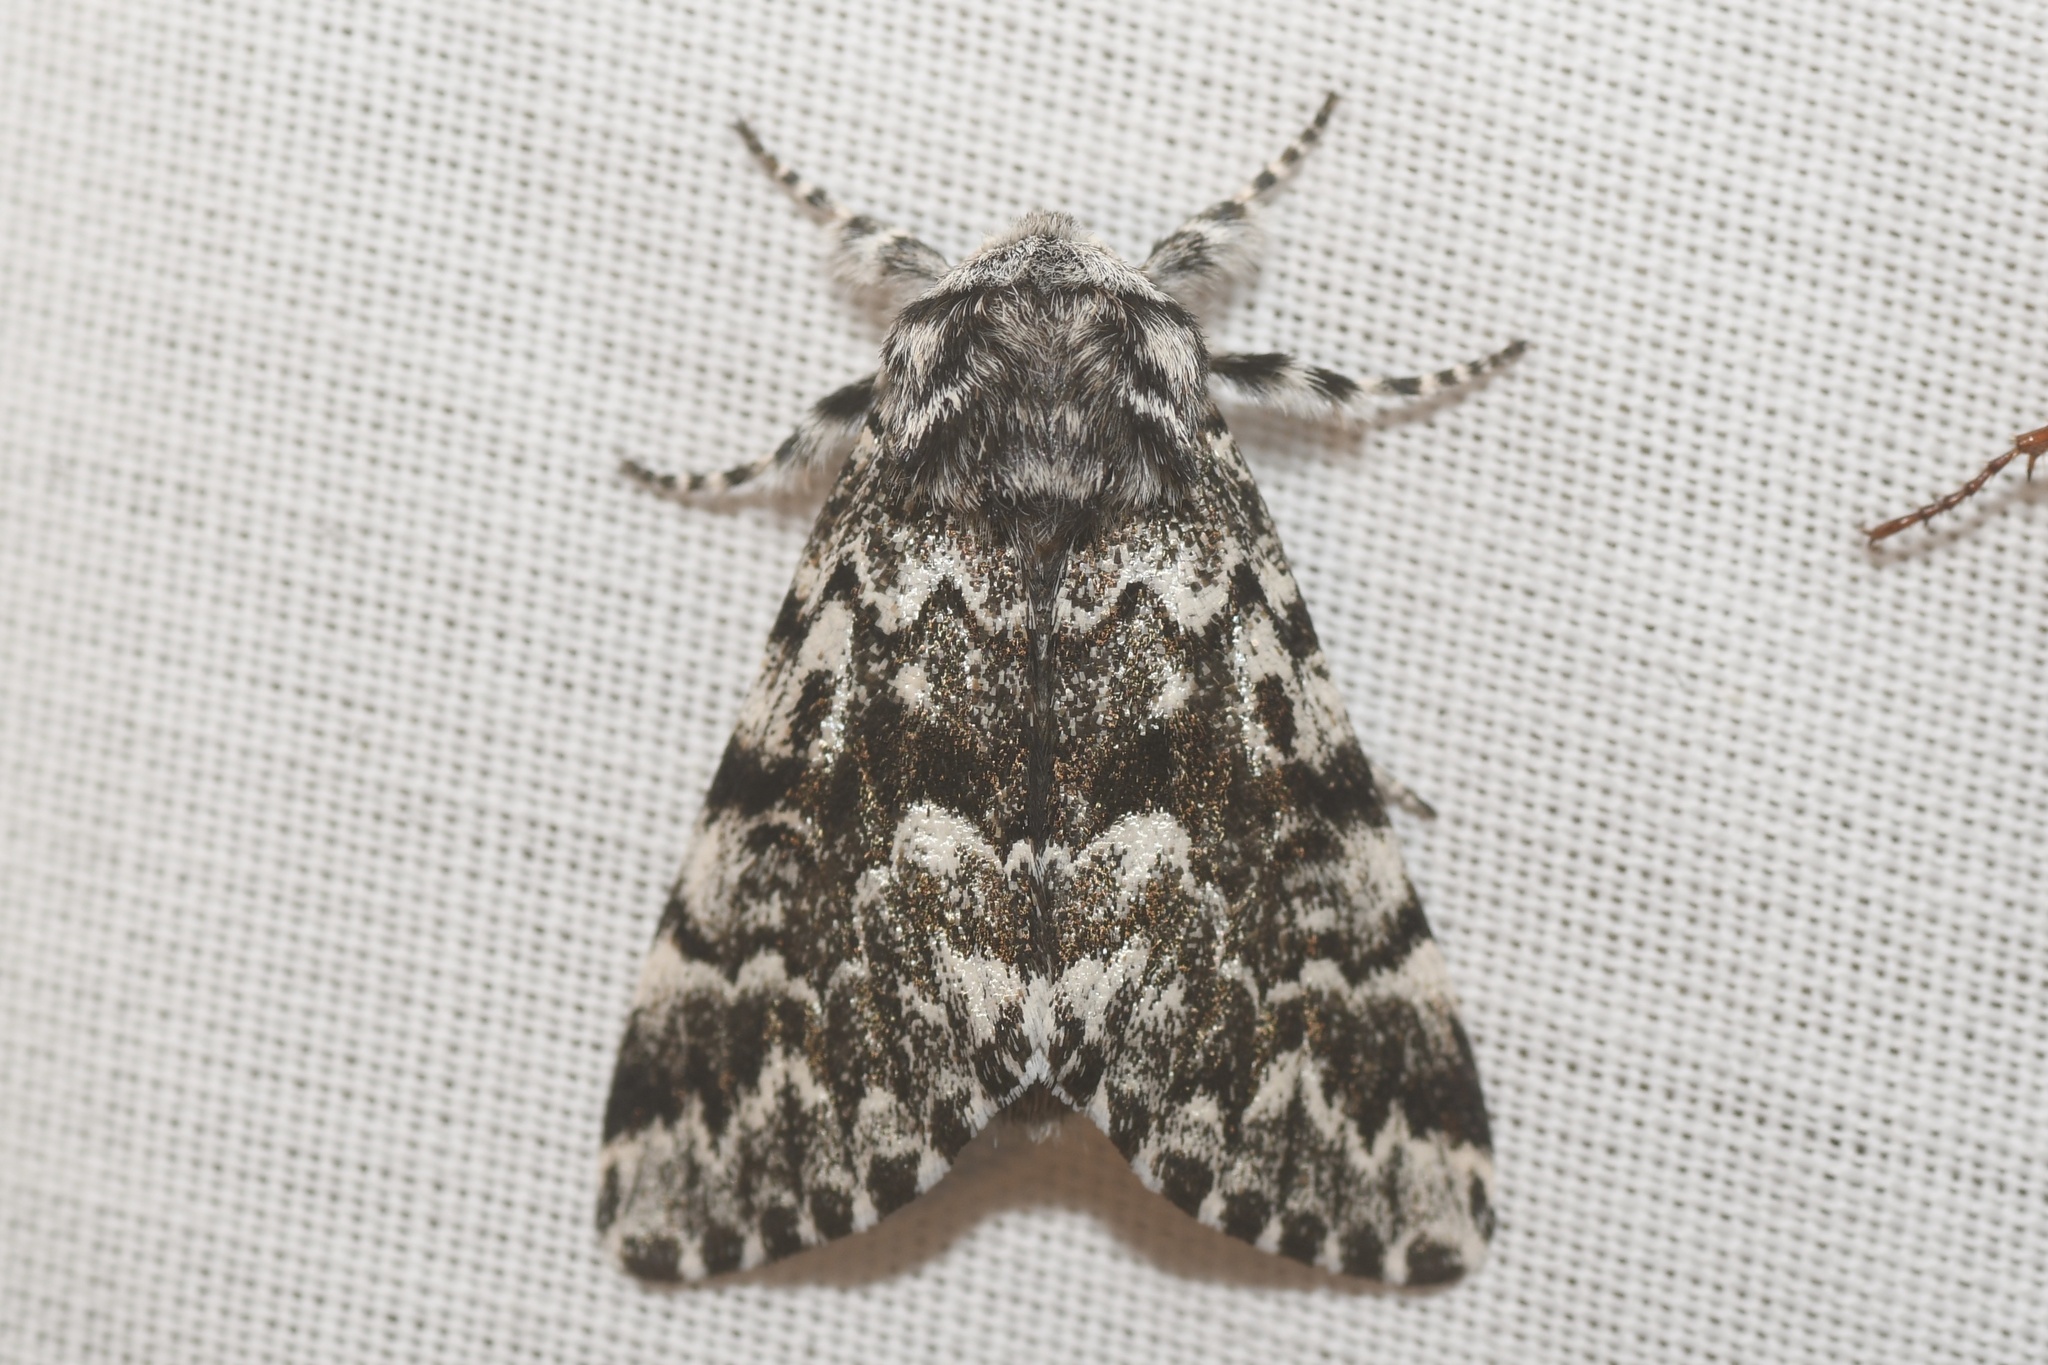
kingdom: Animalia
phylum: Arthropoda
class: Insecta
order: Lepidoptera
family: Noctuidae
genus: Panthea
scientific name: Panthea acronyctoides
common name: Black zigzag moth
